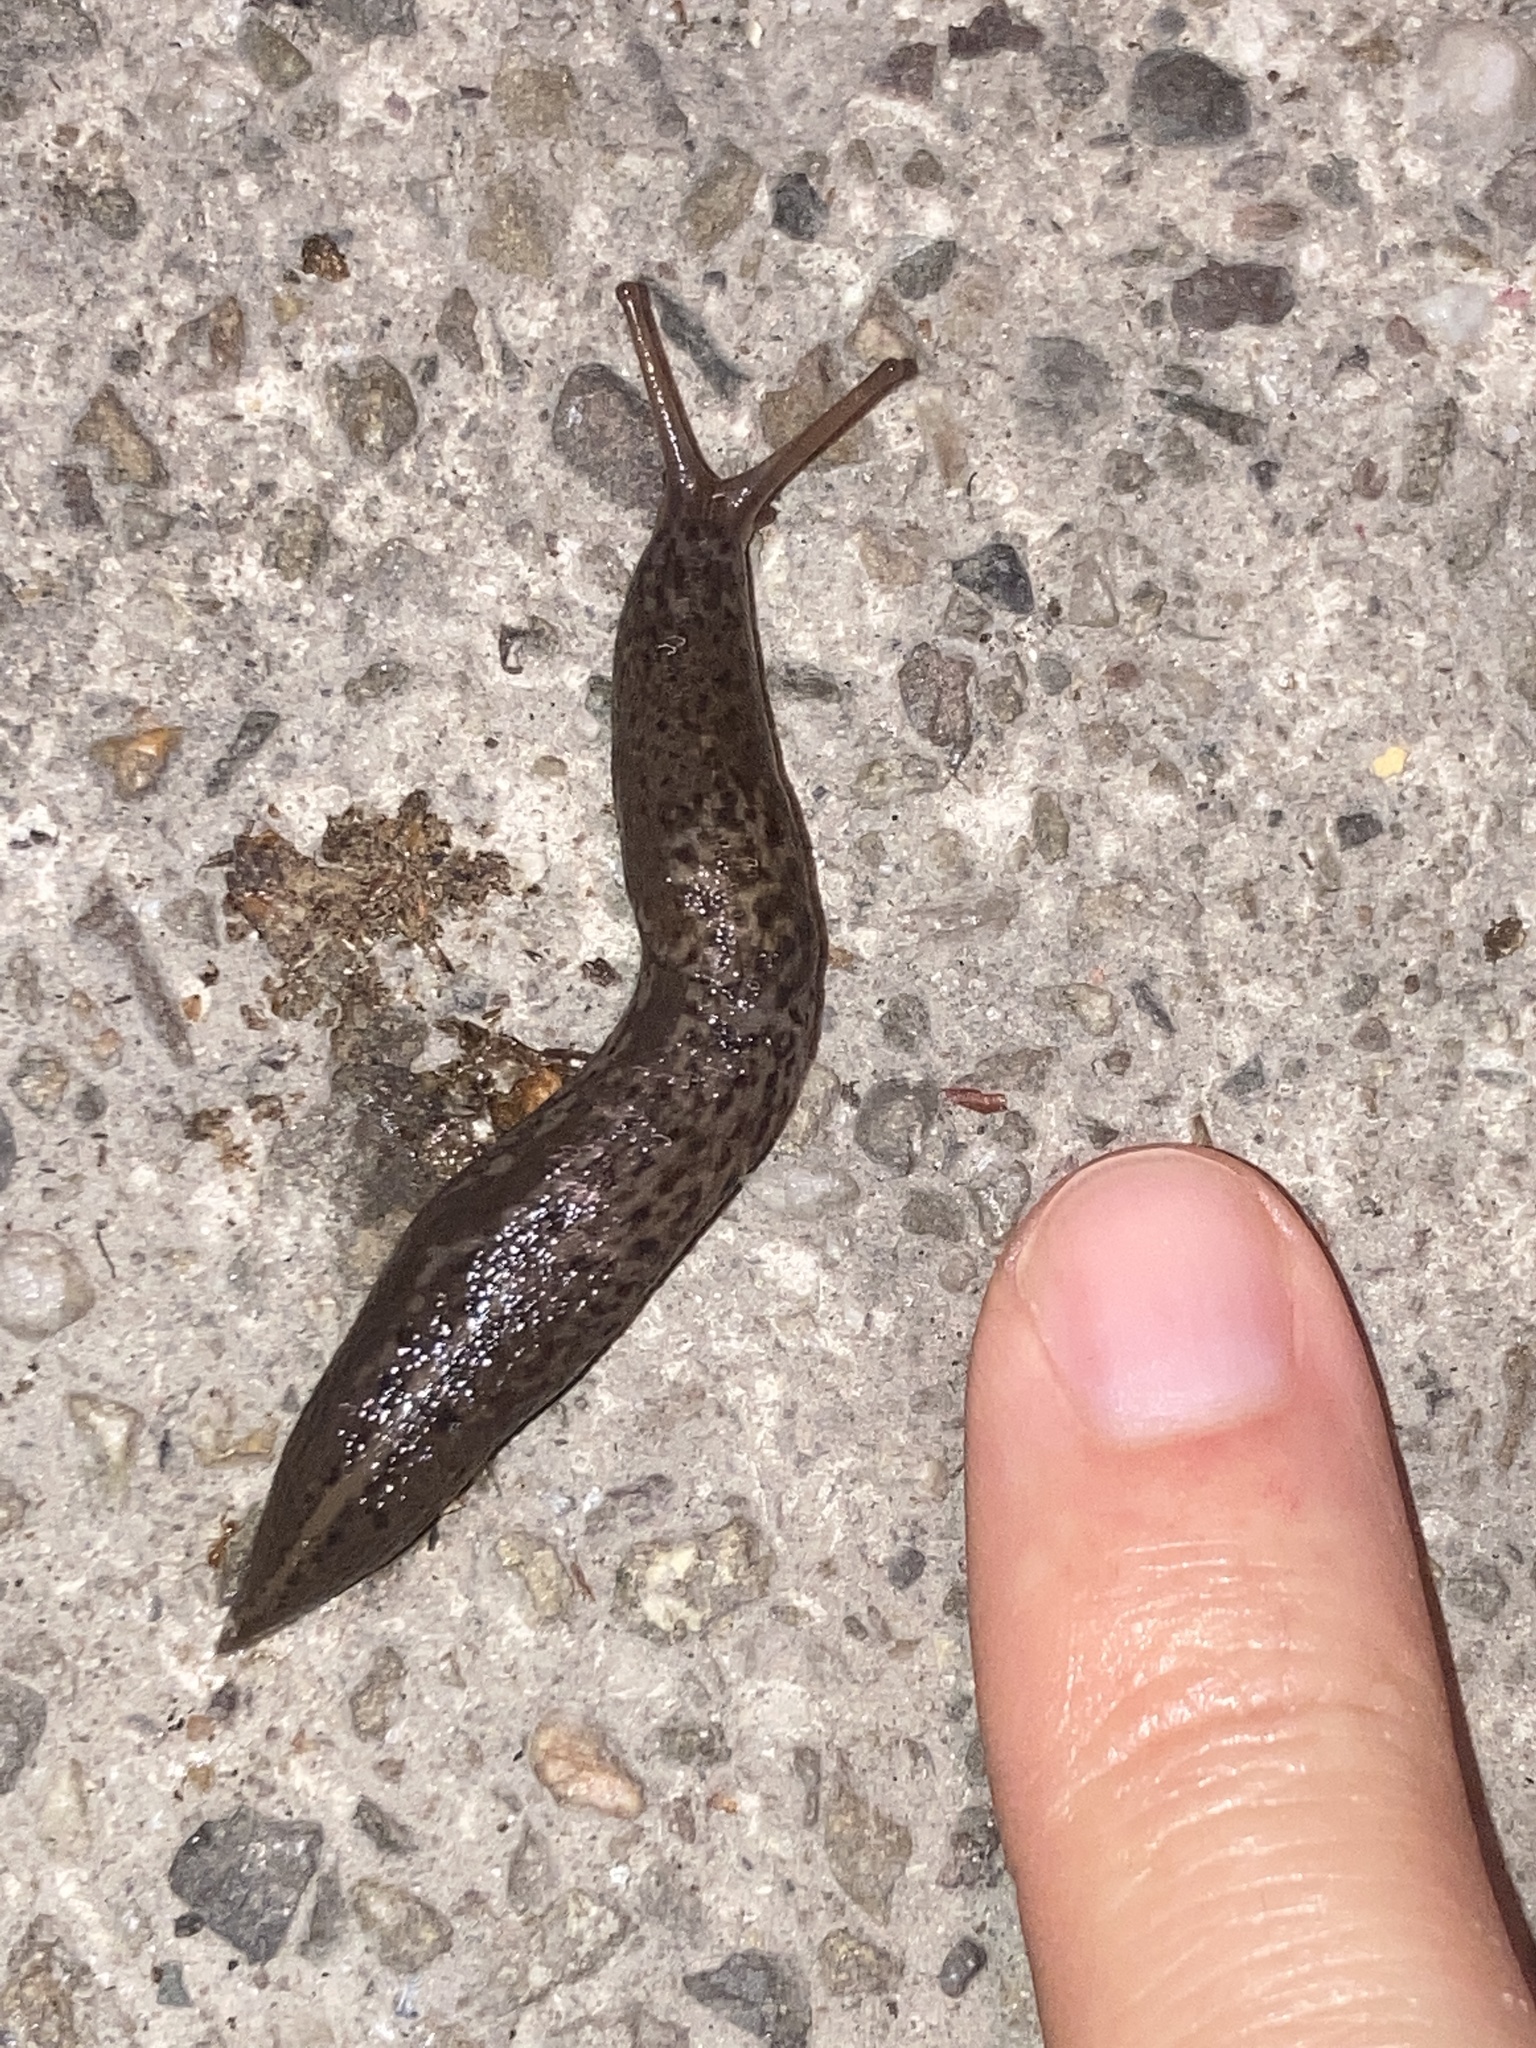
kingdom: Animalia
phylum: Mollusca
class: Gastropoda
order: Stylommatophora
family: Limacidae
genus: Limax
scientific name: Limax maximus
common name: Great grey slug
